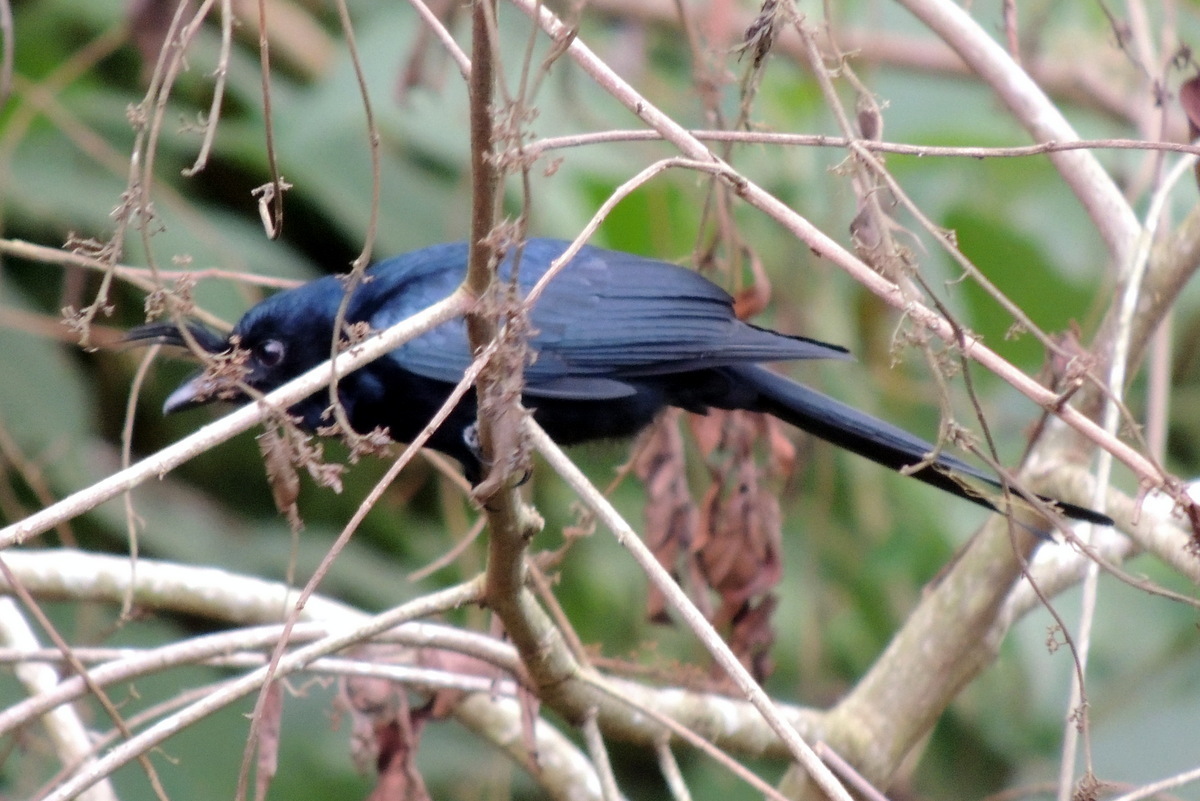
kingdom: Animalia
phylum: Chordata
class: Aves
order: Passeriformes
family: Dicruridae
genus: Dicrurus
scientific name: Dicrurus forficatus
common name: Crested drongo
